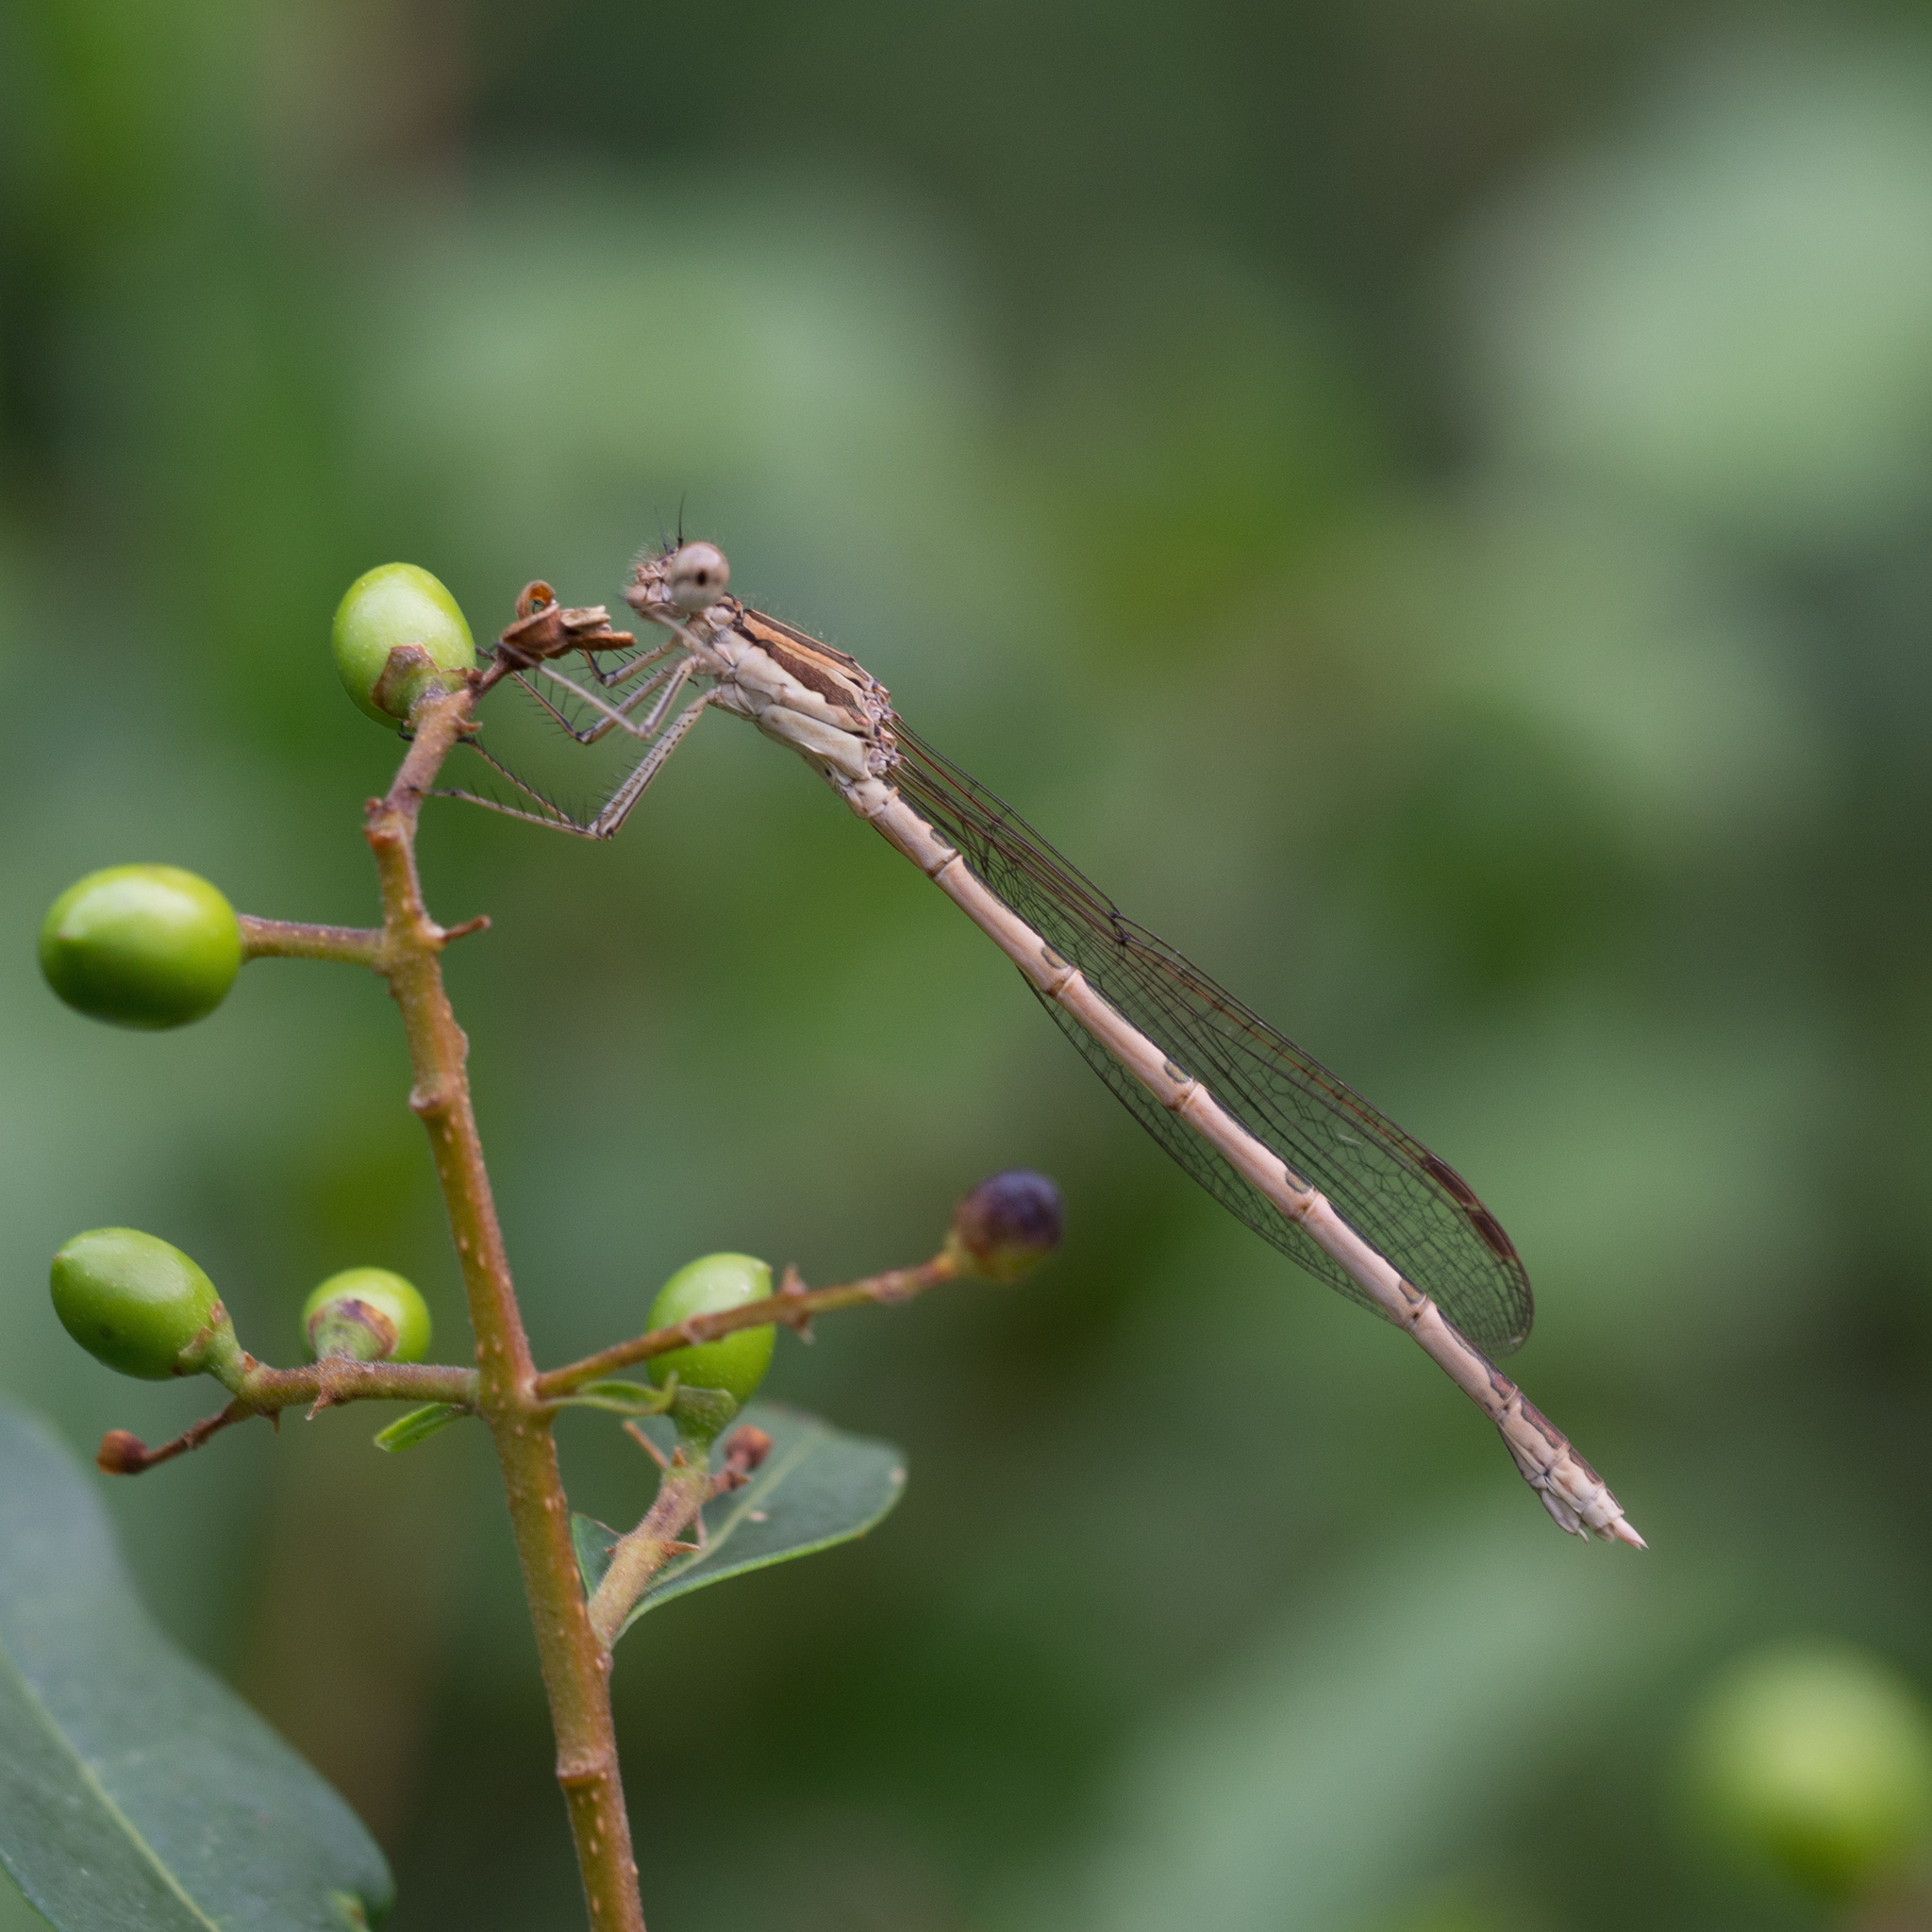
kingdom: Animalia
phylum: Arthropoda
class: Insecta
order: Odonata
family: Lestidae
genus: Sympecma
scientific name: Sympecma fusca
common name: Common winter damsel
